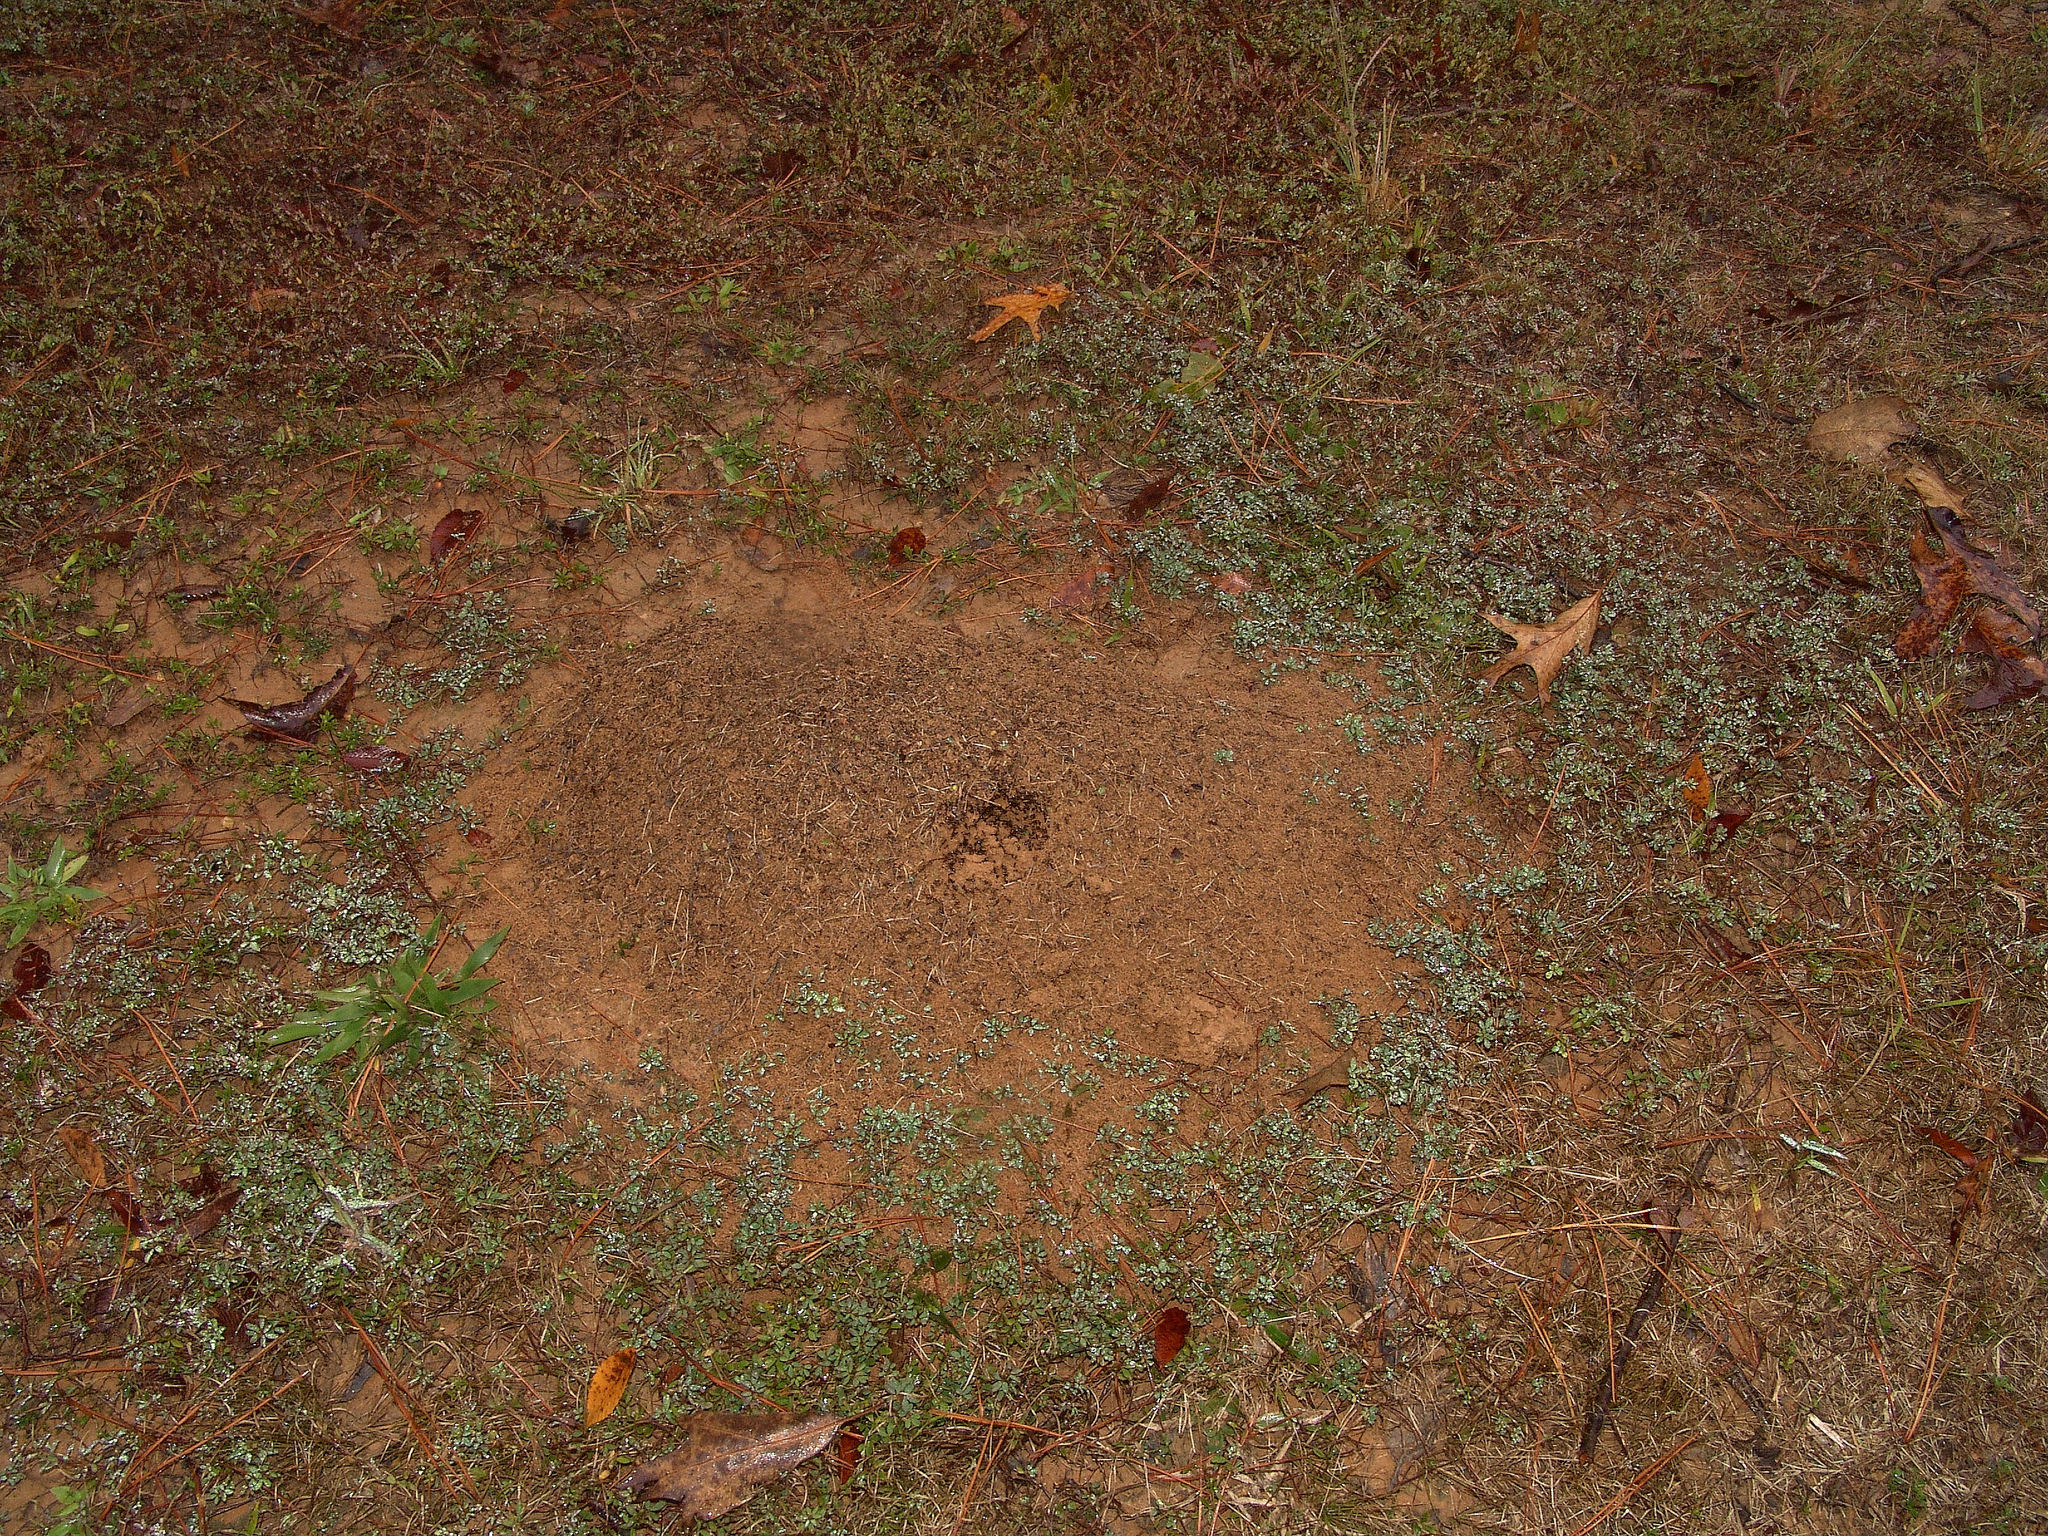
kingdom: Animalia
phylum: Arthropoda
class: Insecta
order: Hymenoptera
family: Formicidae
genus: Solenopsis
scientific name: Solenopsis
